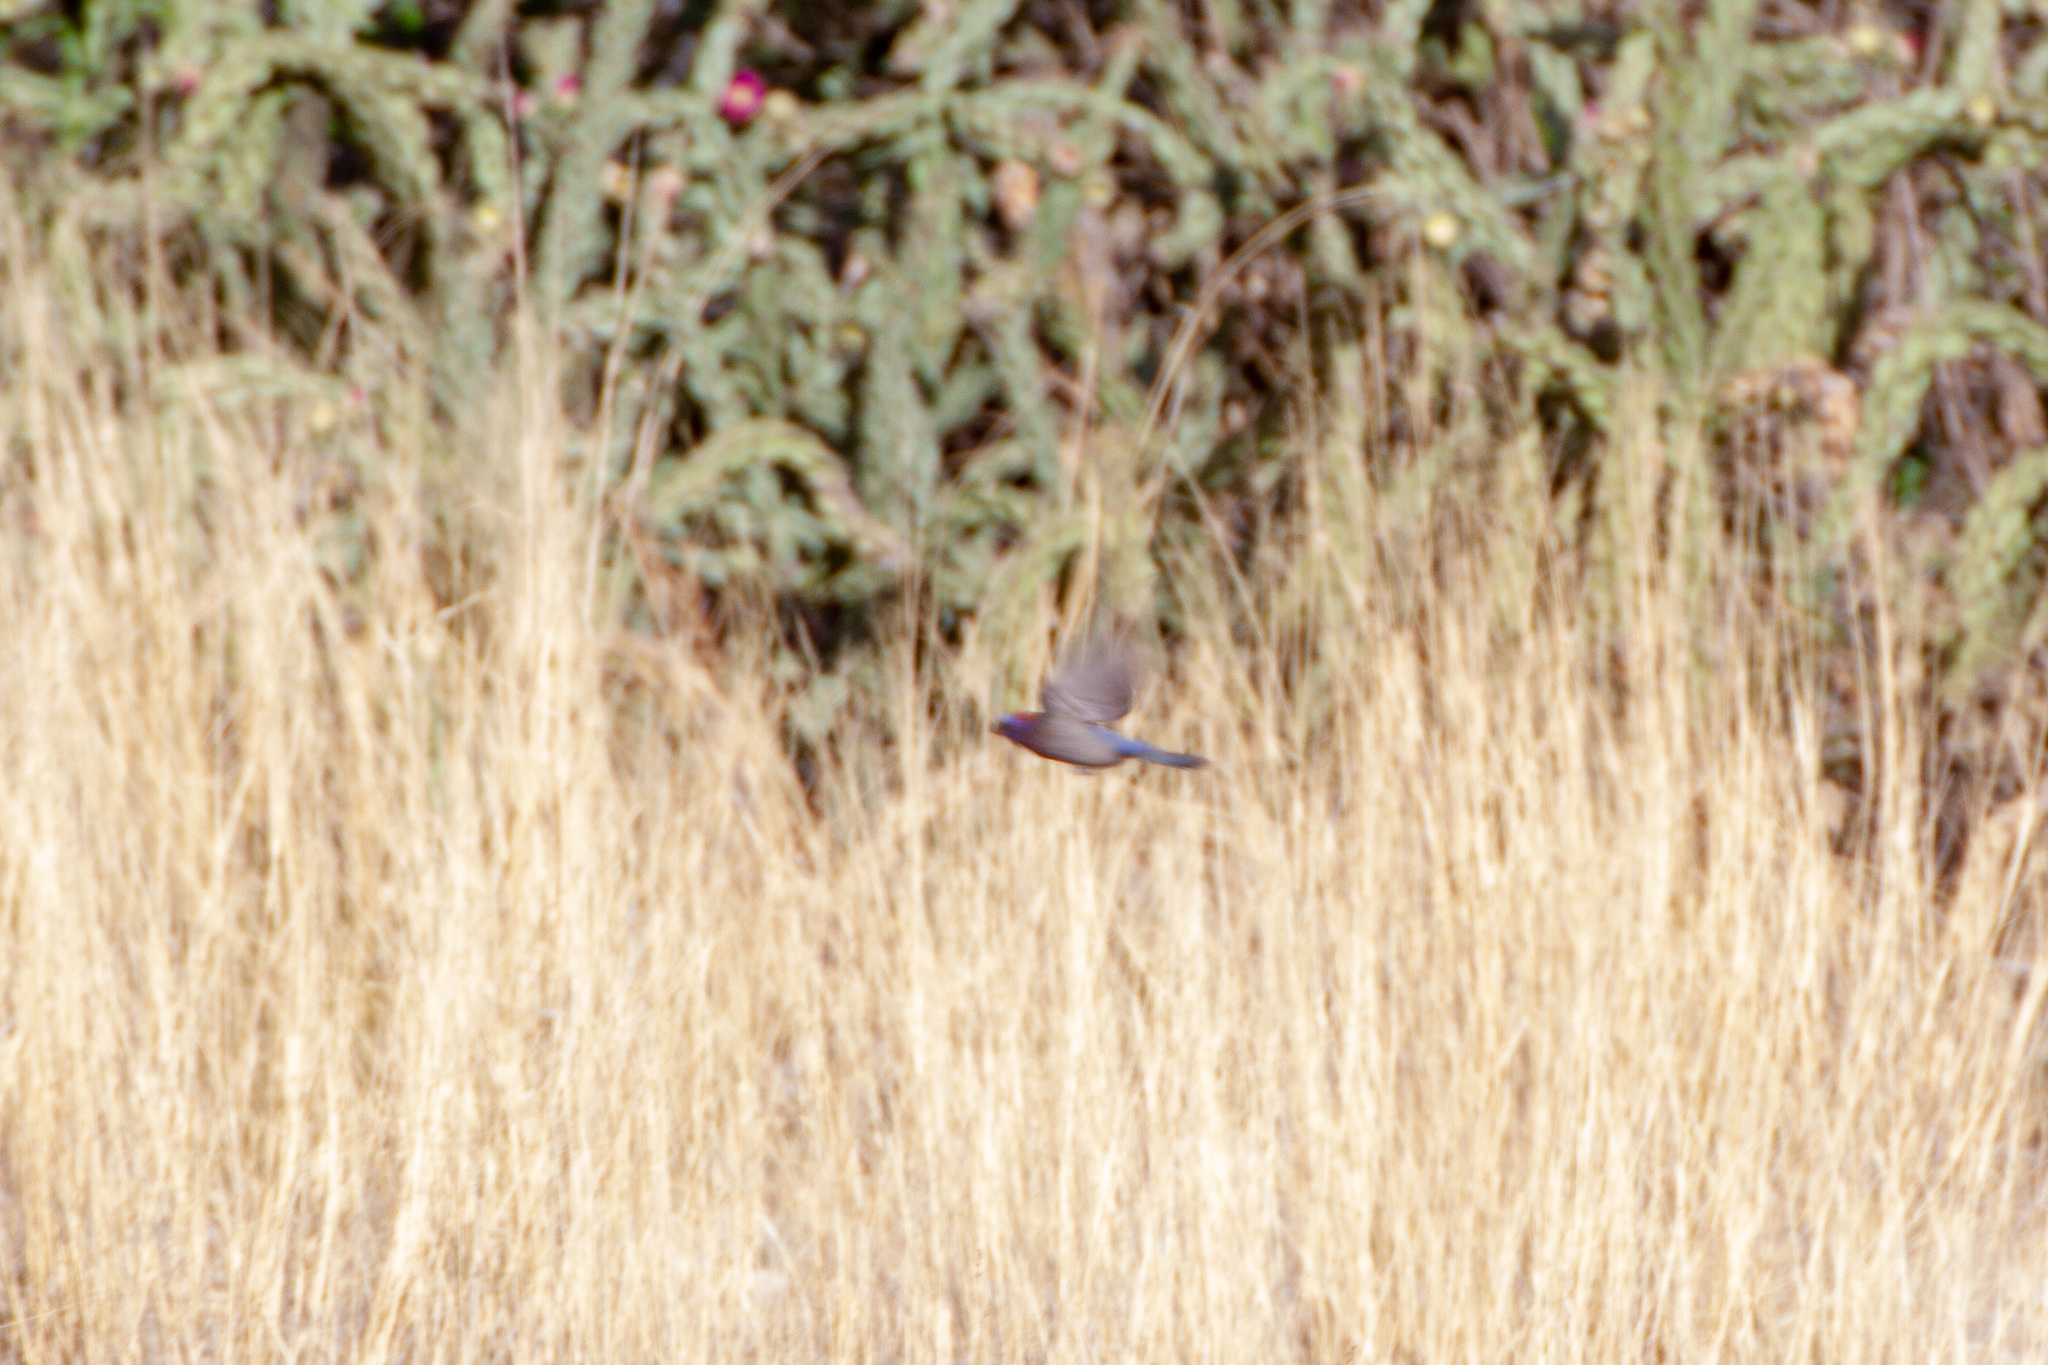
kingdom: Animalia
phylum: Chordata
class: Aves
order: Passeriformes
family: Cardinalidae
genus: Passerina
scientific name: Passerina versicolor
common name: Varied bunting
